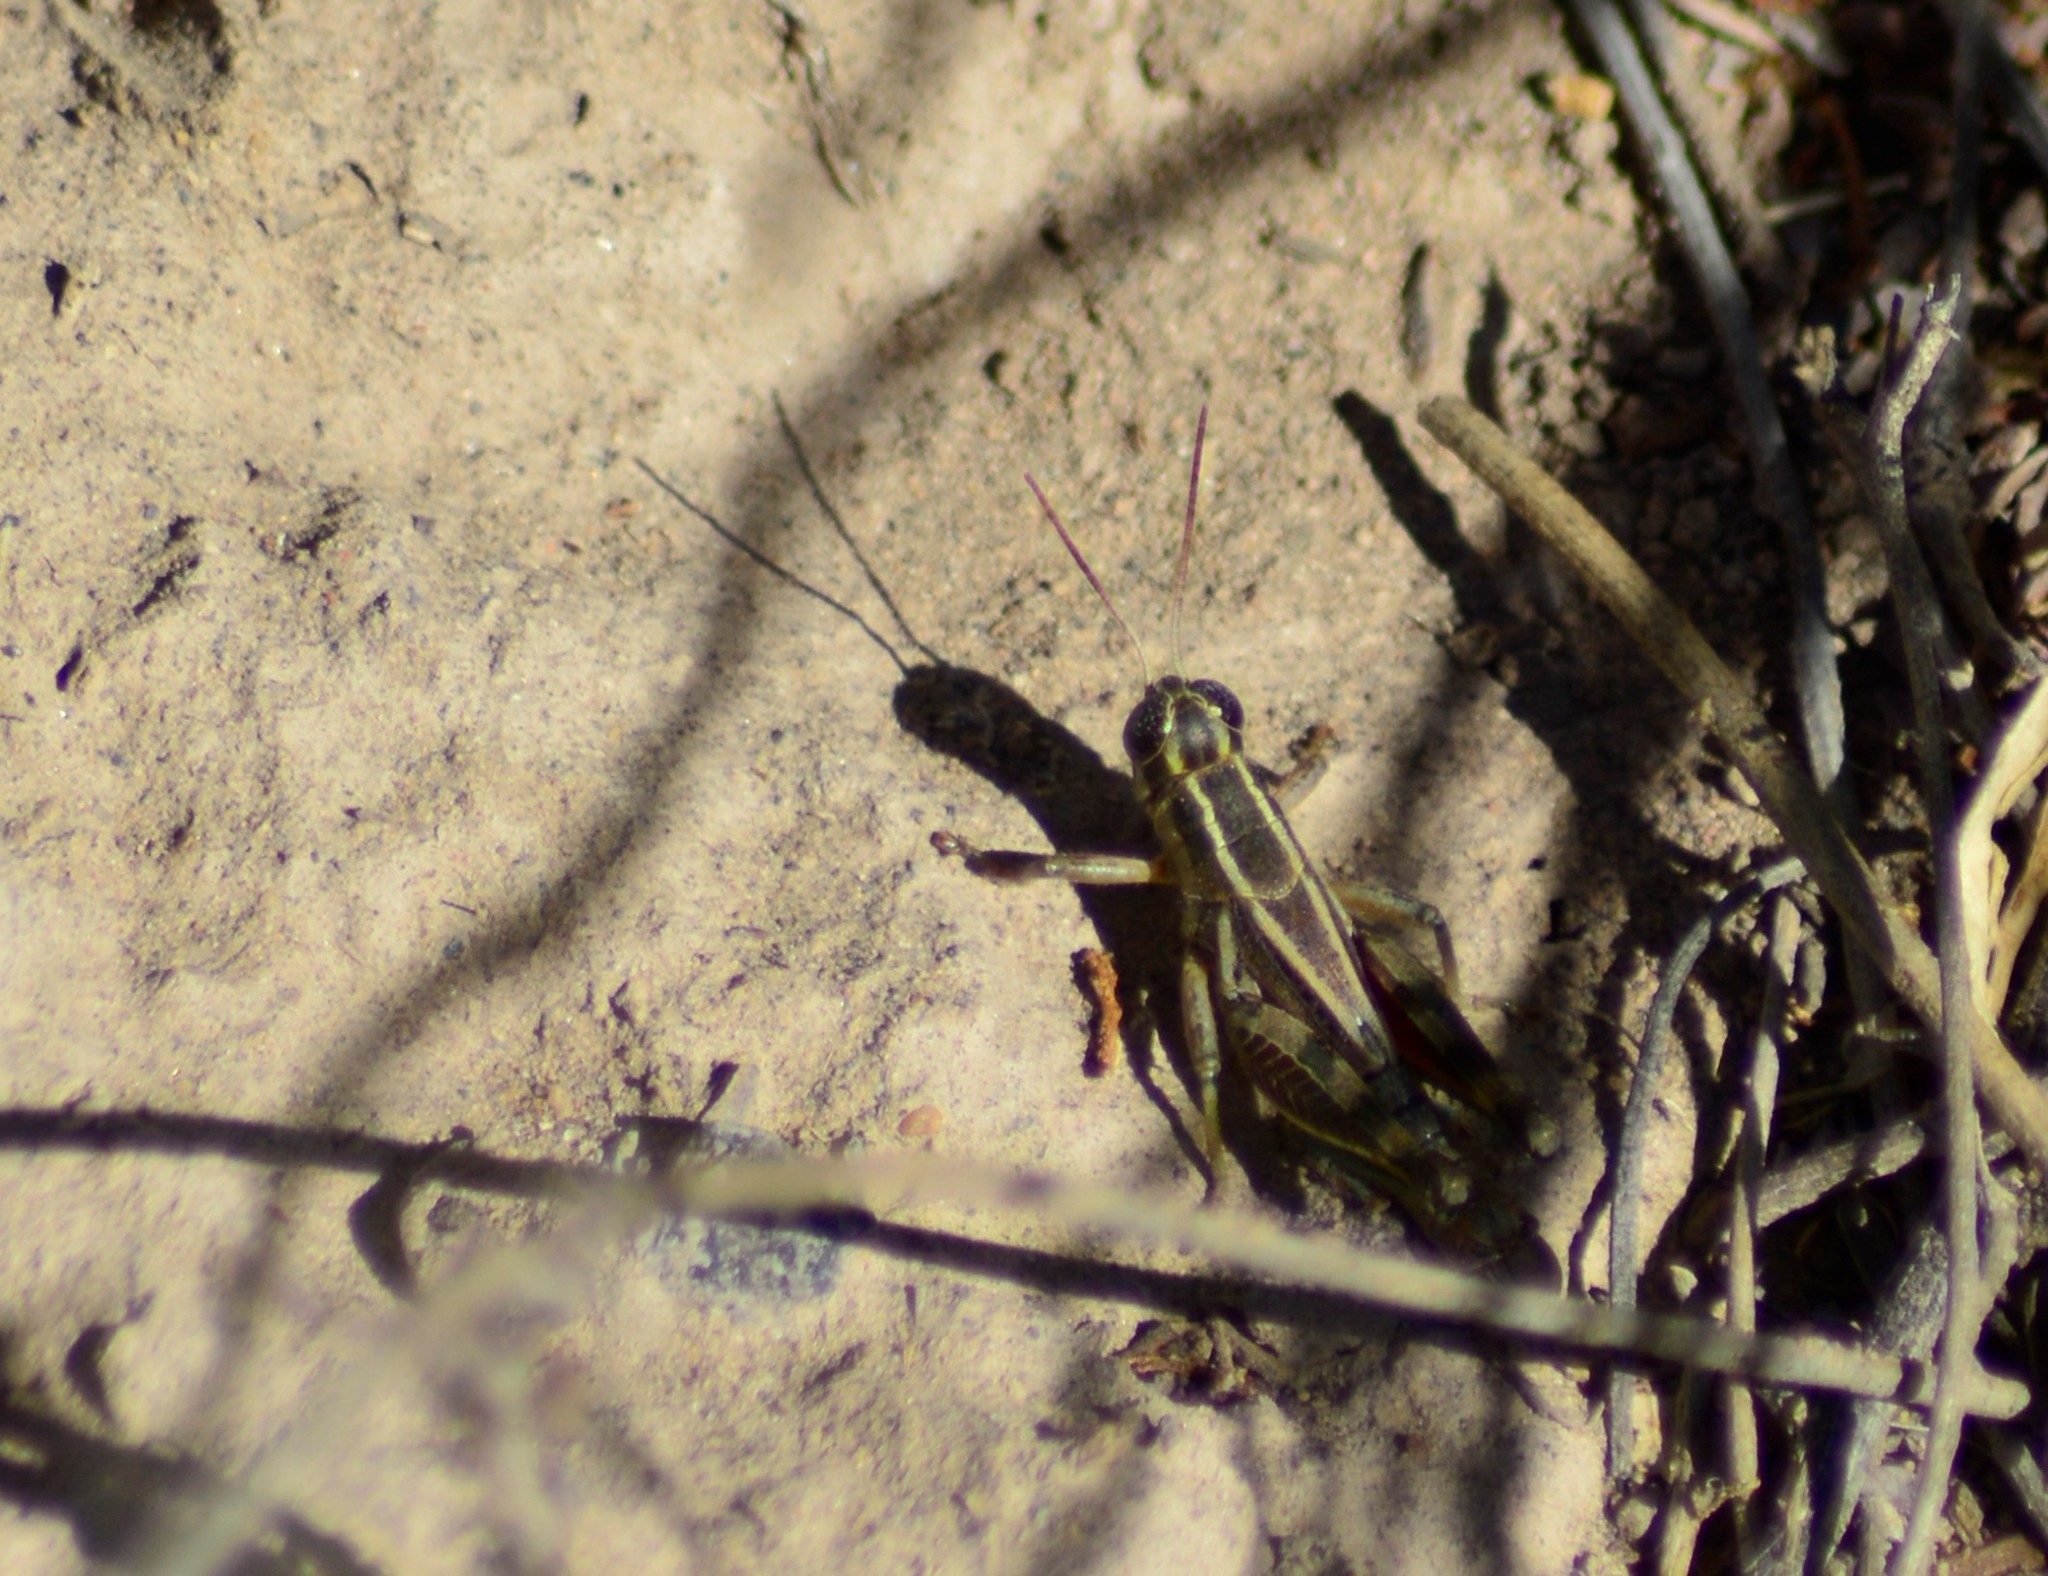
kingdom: Animalia
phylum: Arthropoda
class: Insecta
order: Orthoptera
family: Acrididae
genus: Dichroplus
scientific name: Dichroplus vittatus
